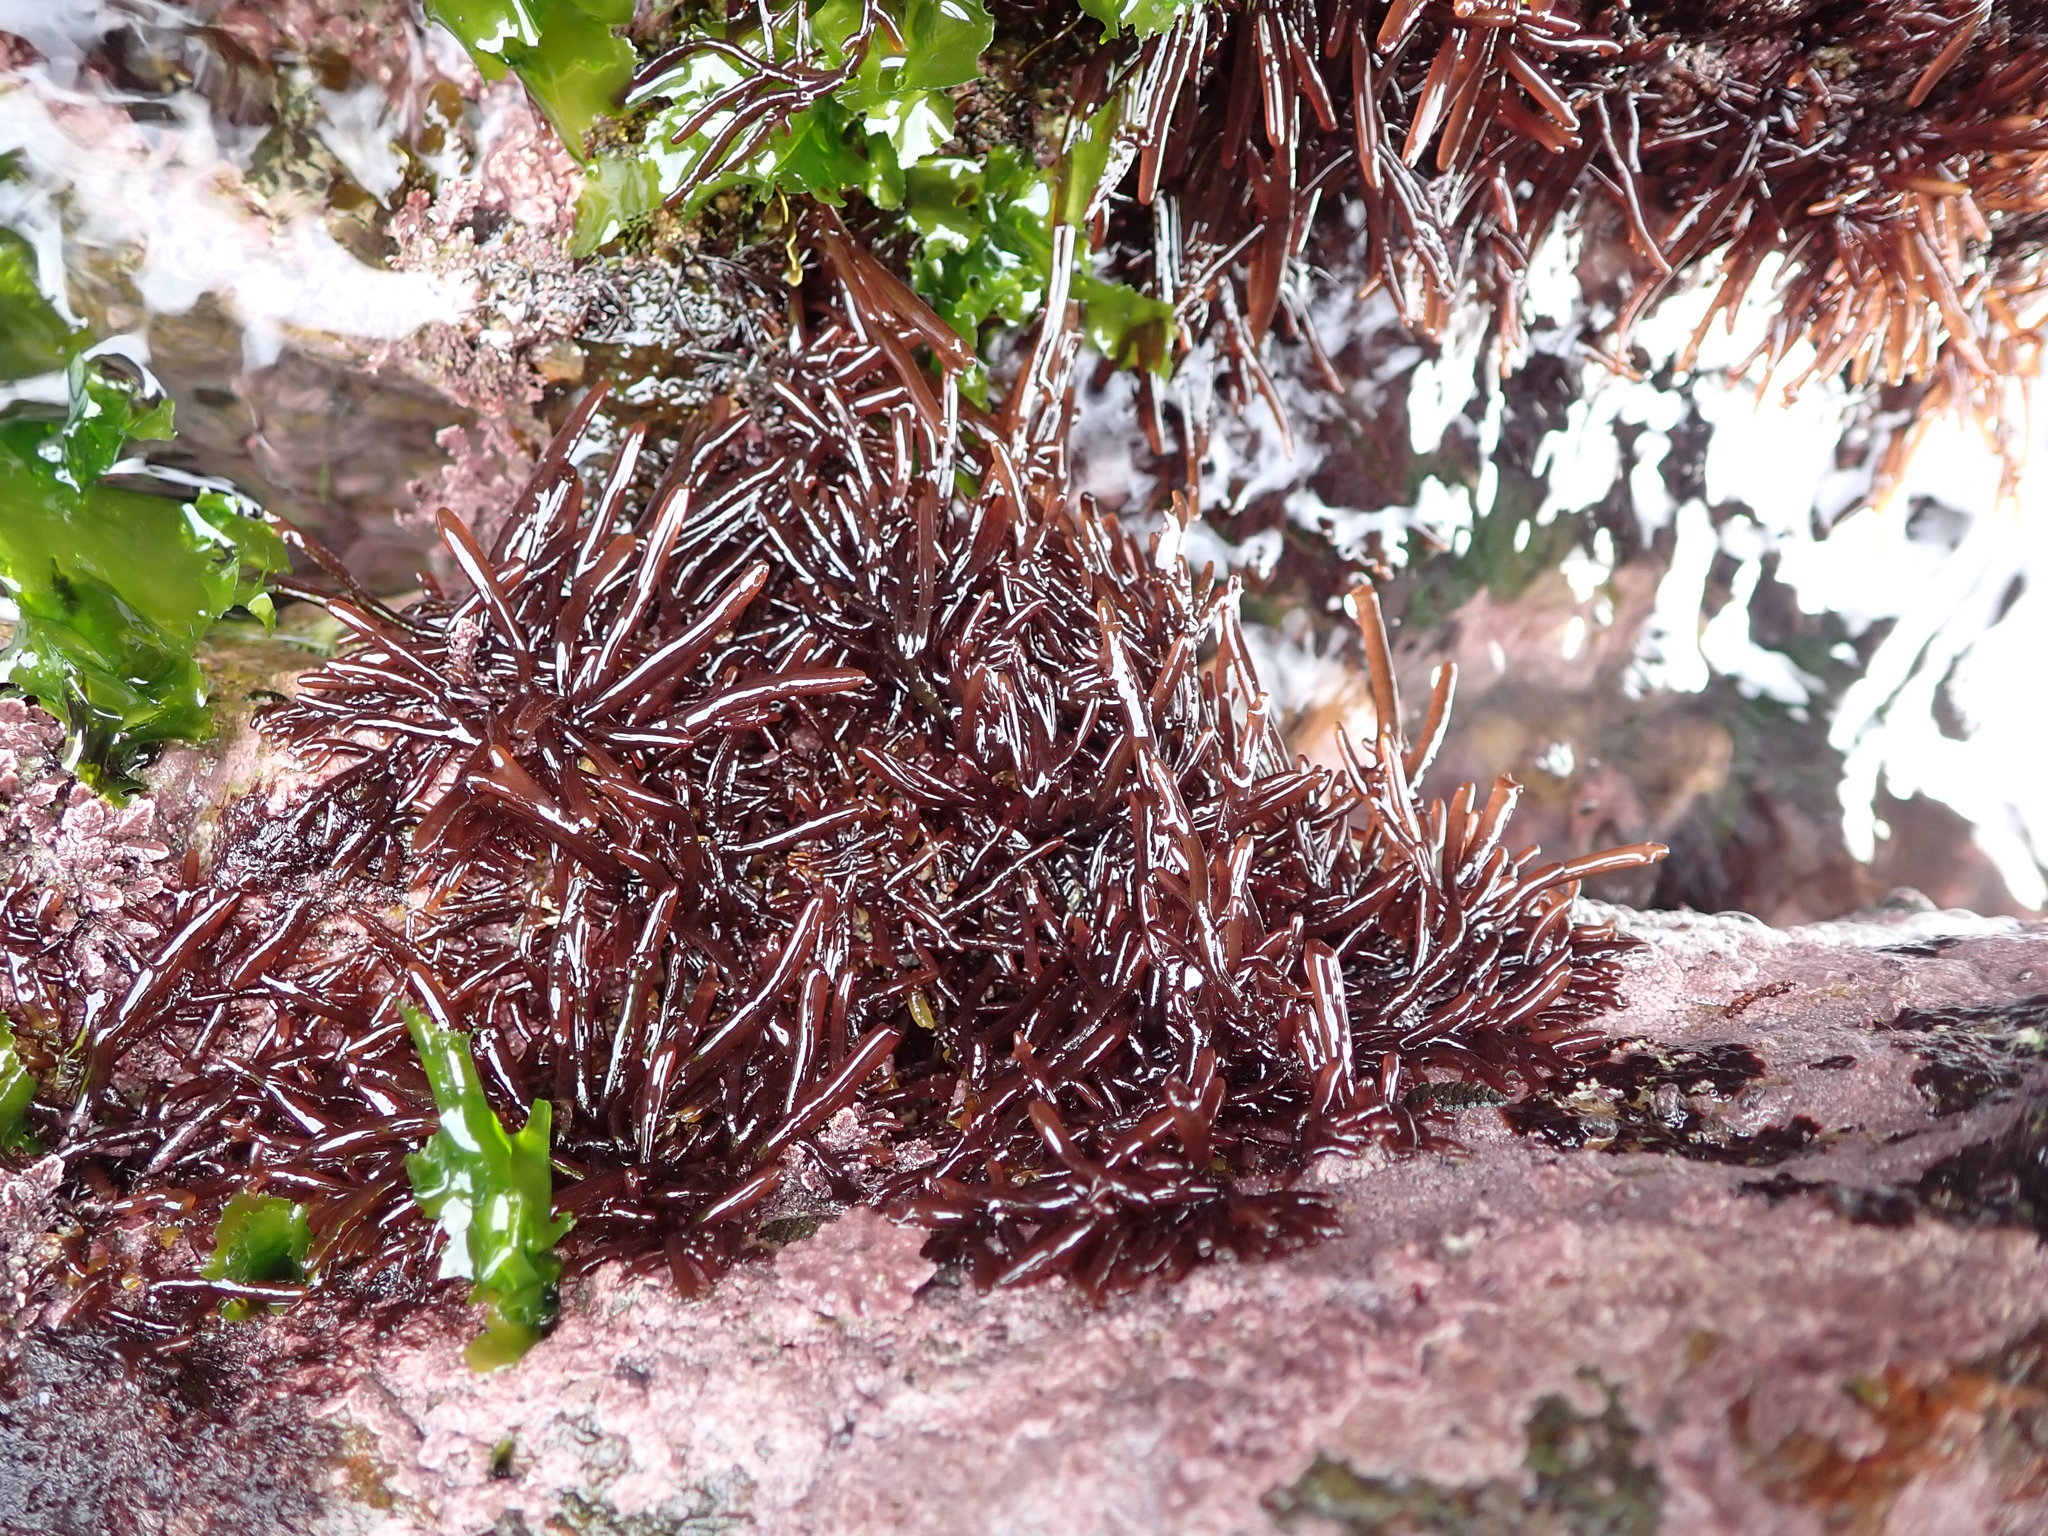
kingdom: Plantae
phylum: Rhodophyta
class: Florideophyceae
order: Rhodymeniales
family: Champiaceae
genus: Champia
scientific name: Champia novae-zelandiae
